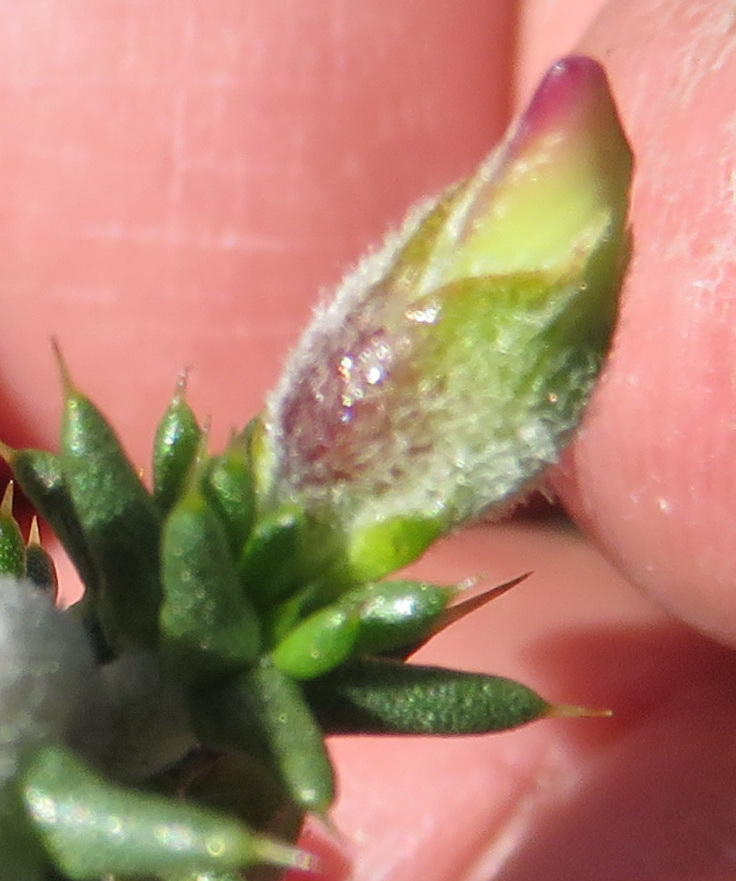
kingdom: Plantae
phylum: Tracheophyta
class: Magnoliopsida
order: Fabales
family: Fabaceae
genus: Aspalathus
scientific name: Aspalathus collina
